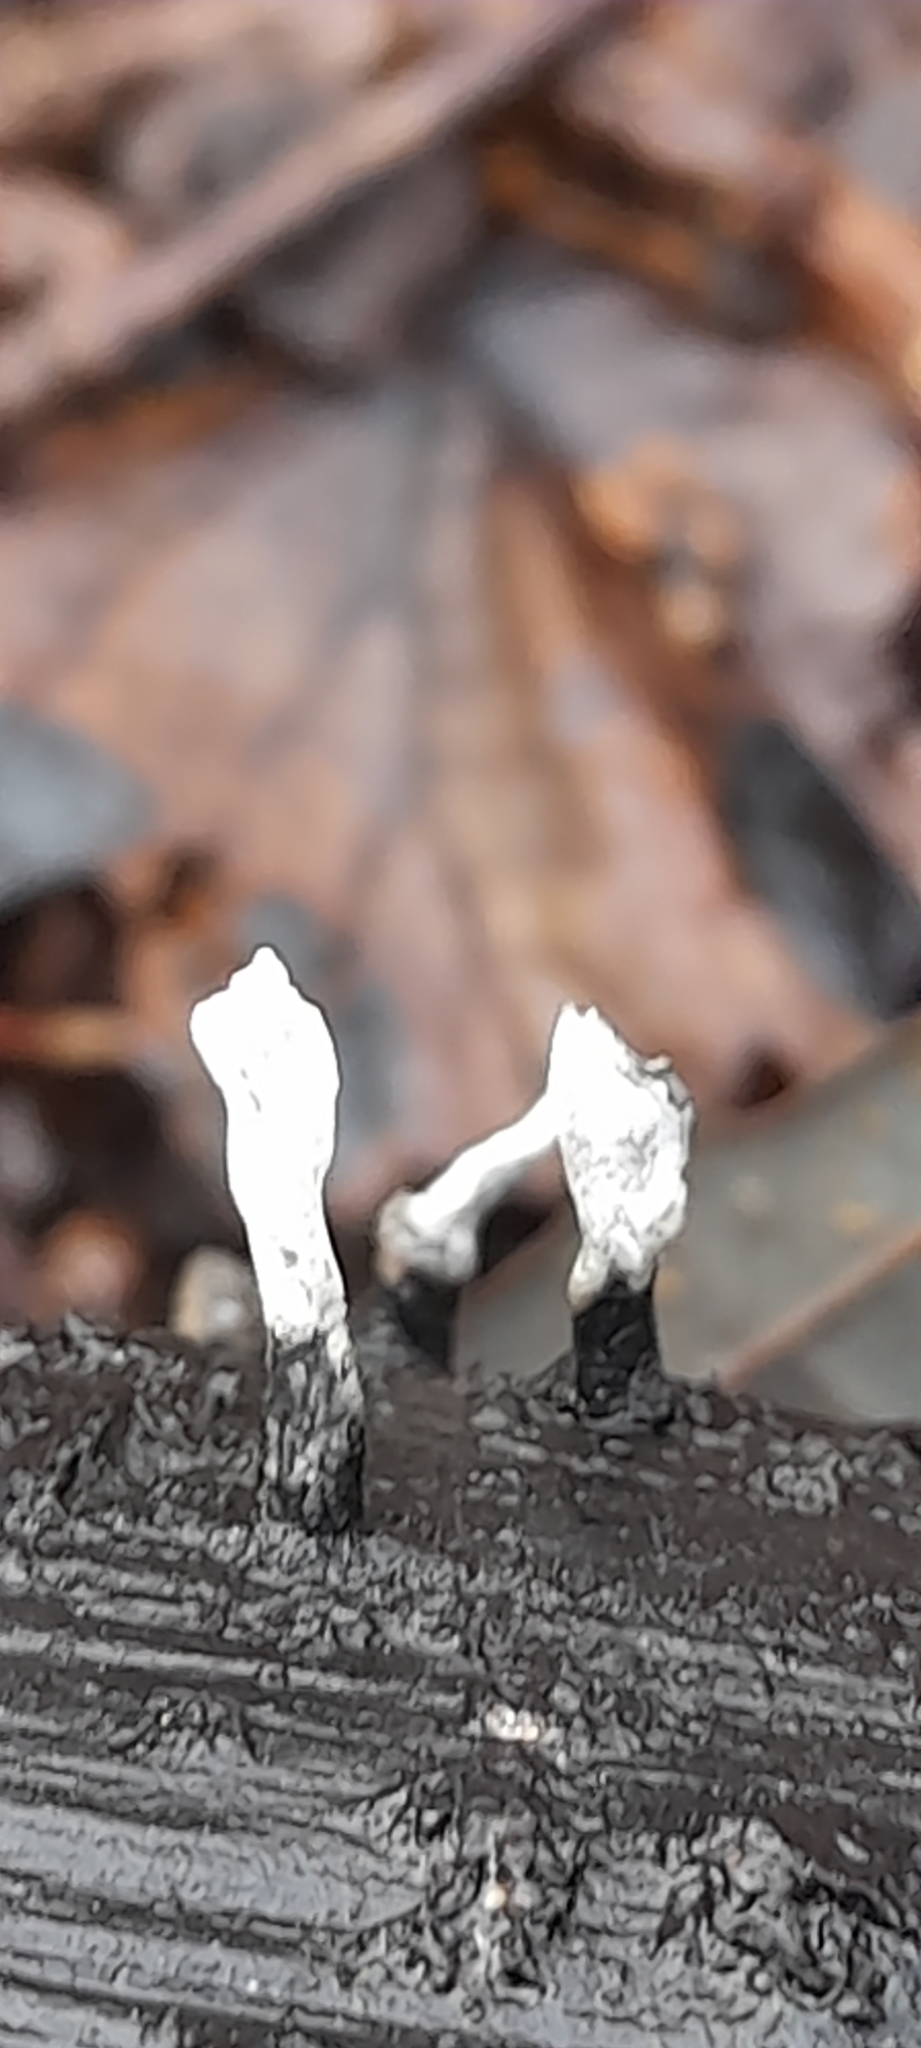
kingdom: Fungi
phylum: Ascomycota
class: Sordariomycetes
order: Xylariales
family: Xylariaceae
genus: Xylaria
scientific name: Xylaria hypoxylon
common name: Candle-snuff fungus
